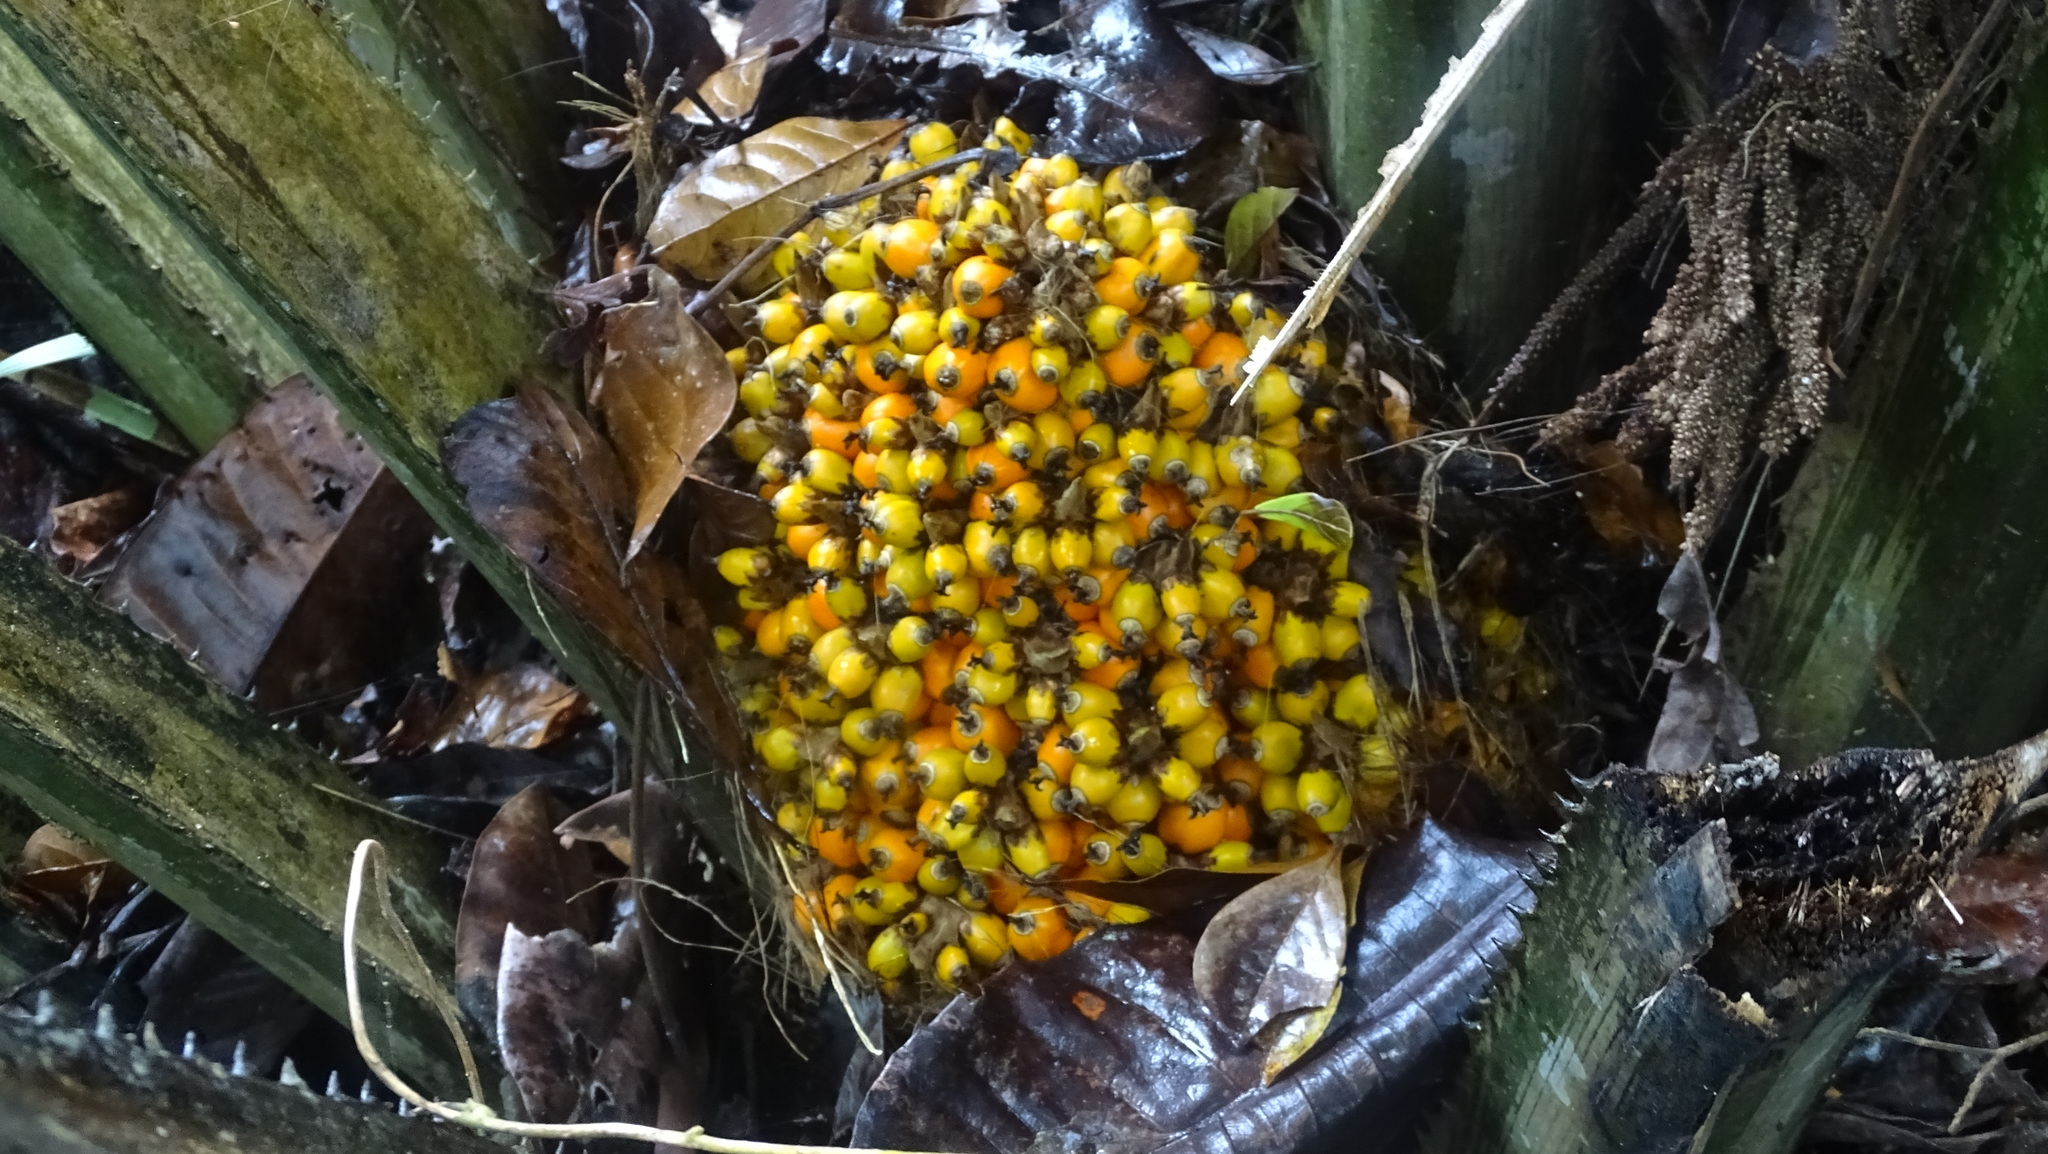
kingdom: Plantae
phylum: Tracheophyta
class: Liliopsida
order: Arecales
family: Arecaceae
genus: Elaeis
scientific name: Elaeis oleifera
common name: American oil palm
